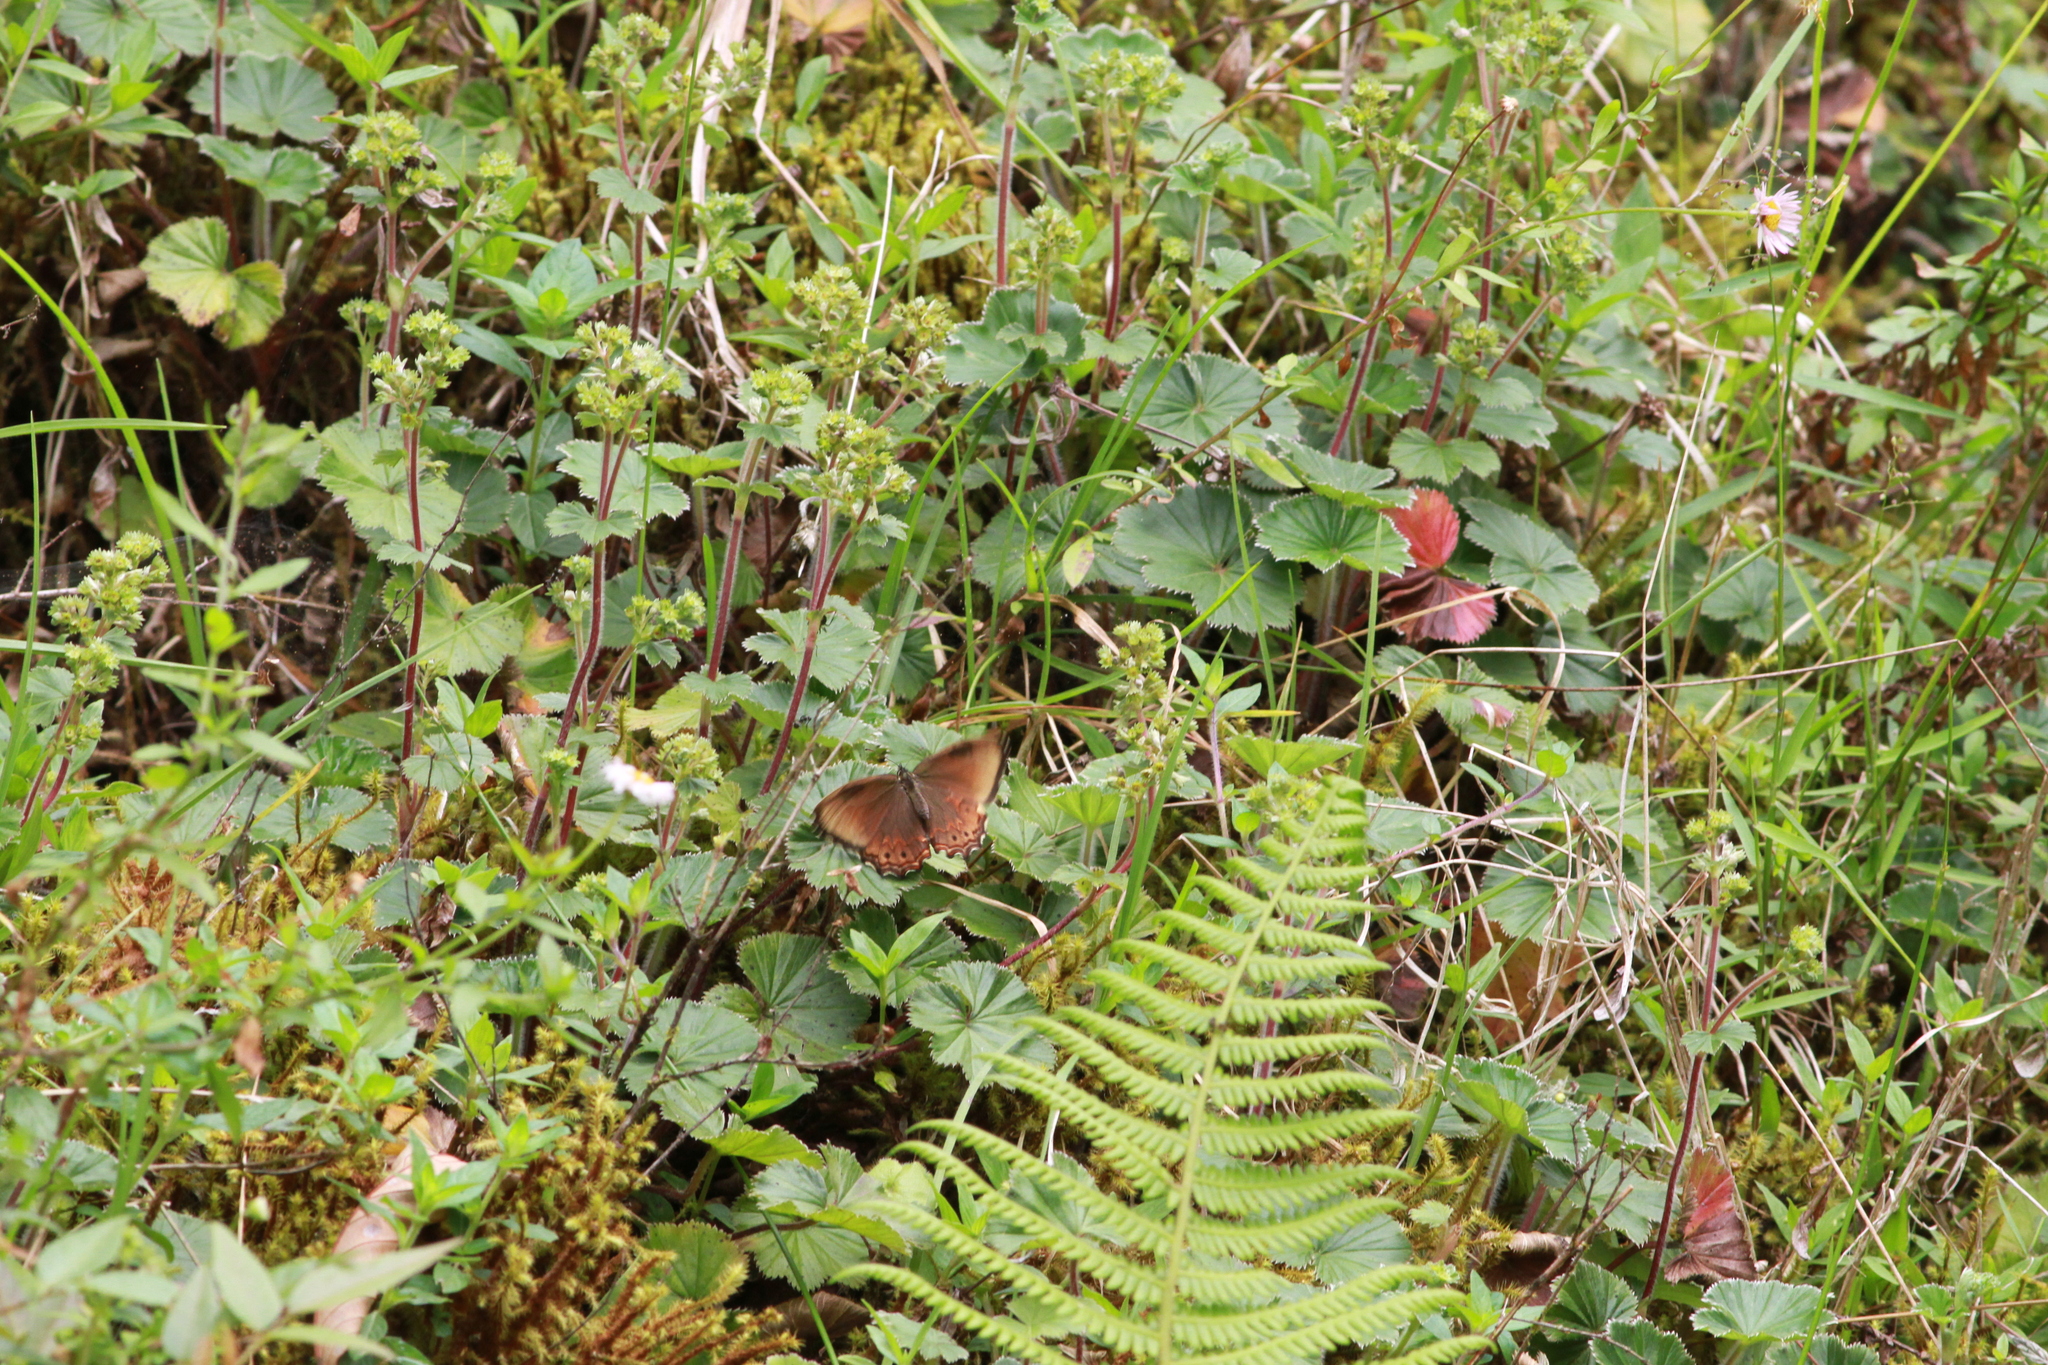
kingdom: Animalia
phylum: Arthropoda
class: Insecta
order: Lepidoptera
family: Nymphalidae
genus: Paramacera
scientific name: Paramacera chinanteca
